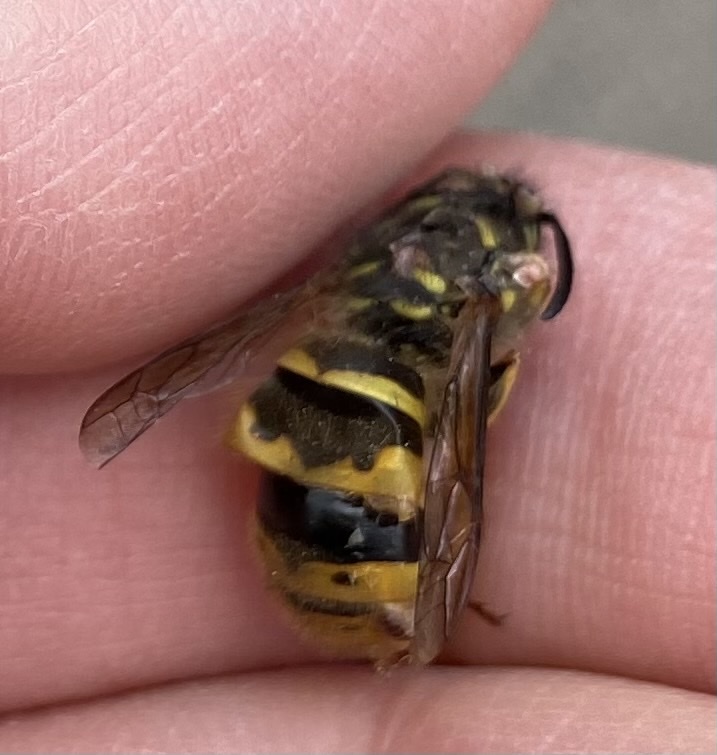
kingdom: Animalia
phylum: Arthropoda
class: Insecta
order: Hymenoptera
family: Vespidae
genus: Vespula
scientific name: Vespula vulgaris
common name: Common wasp
